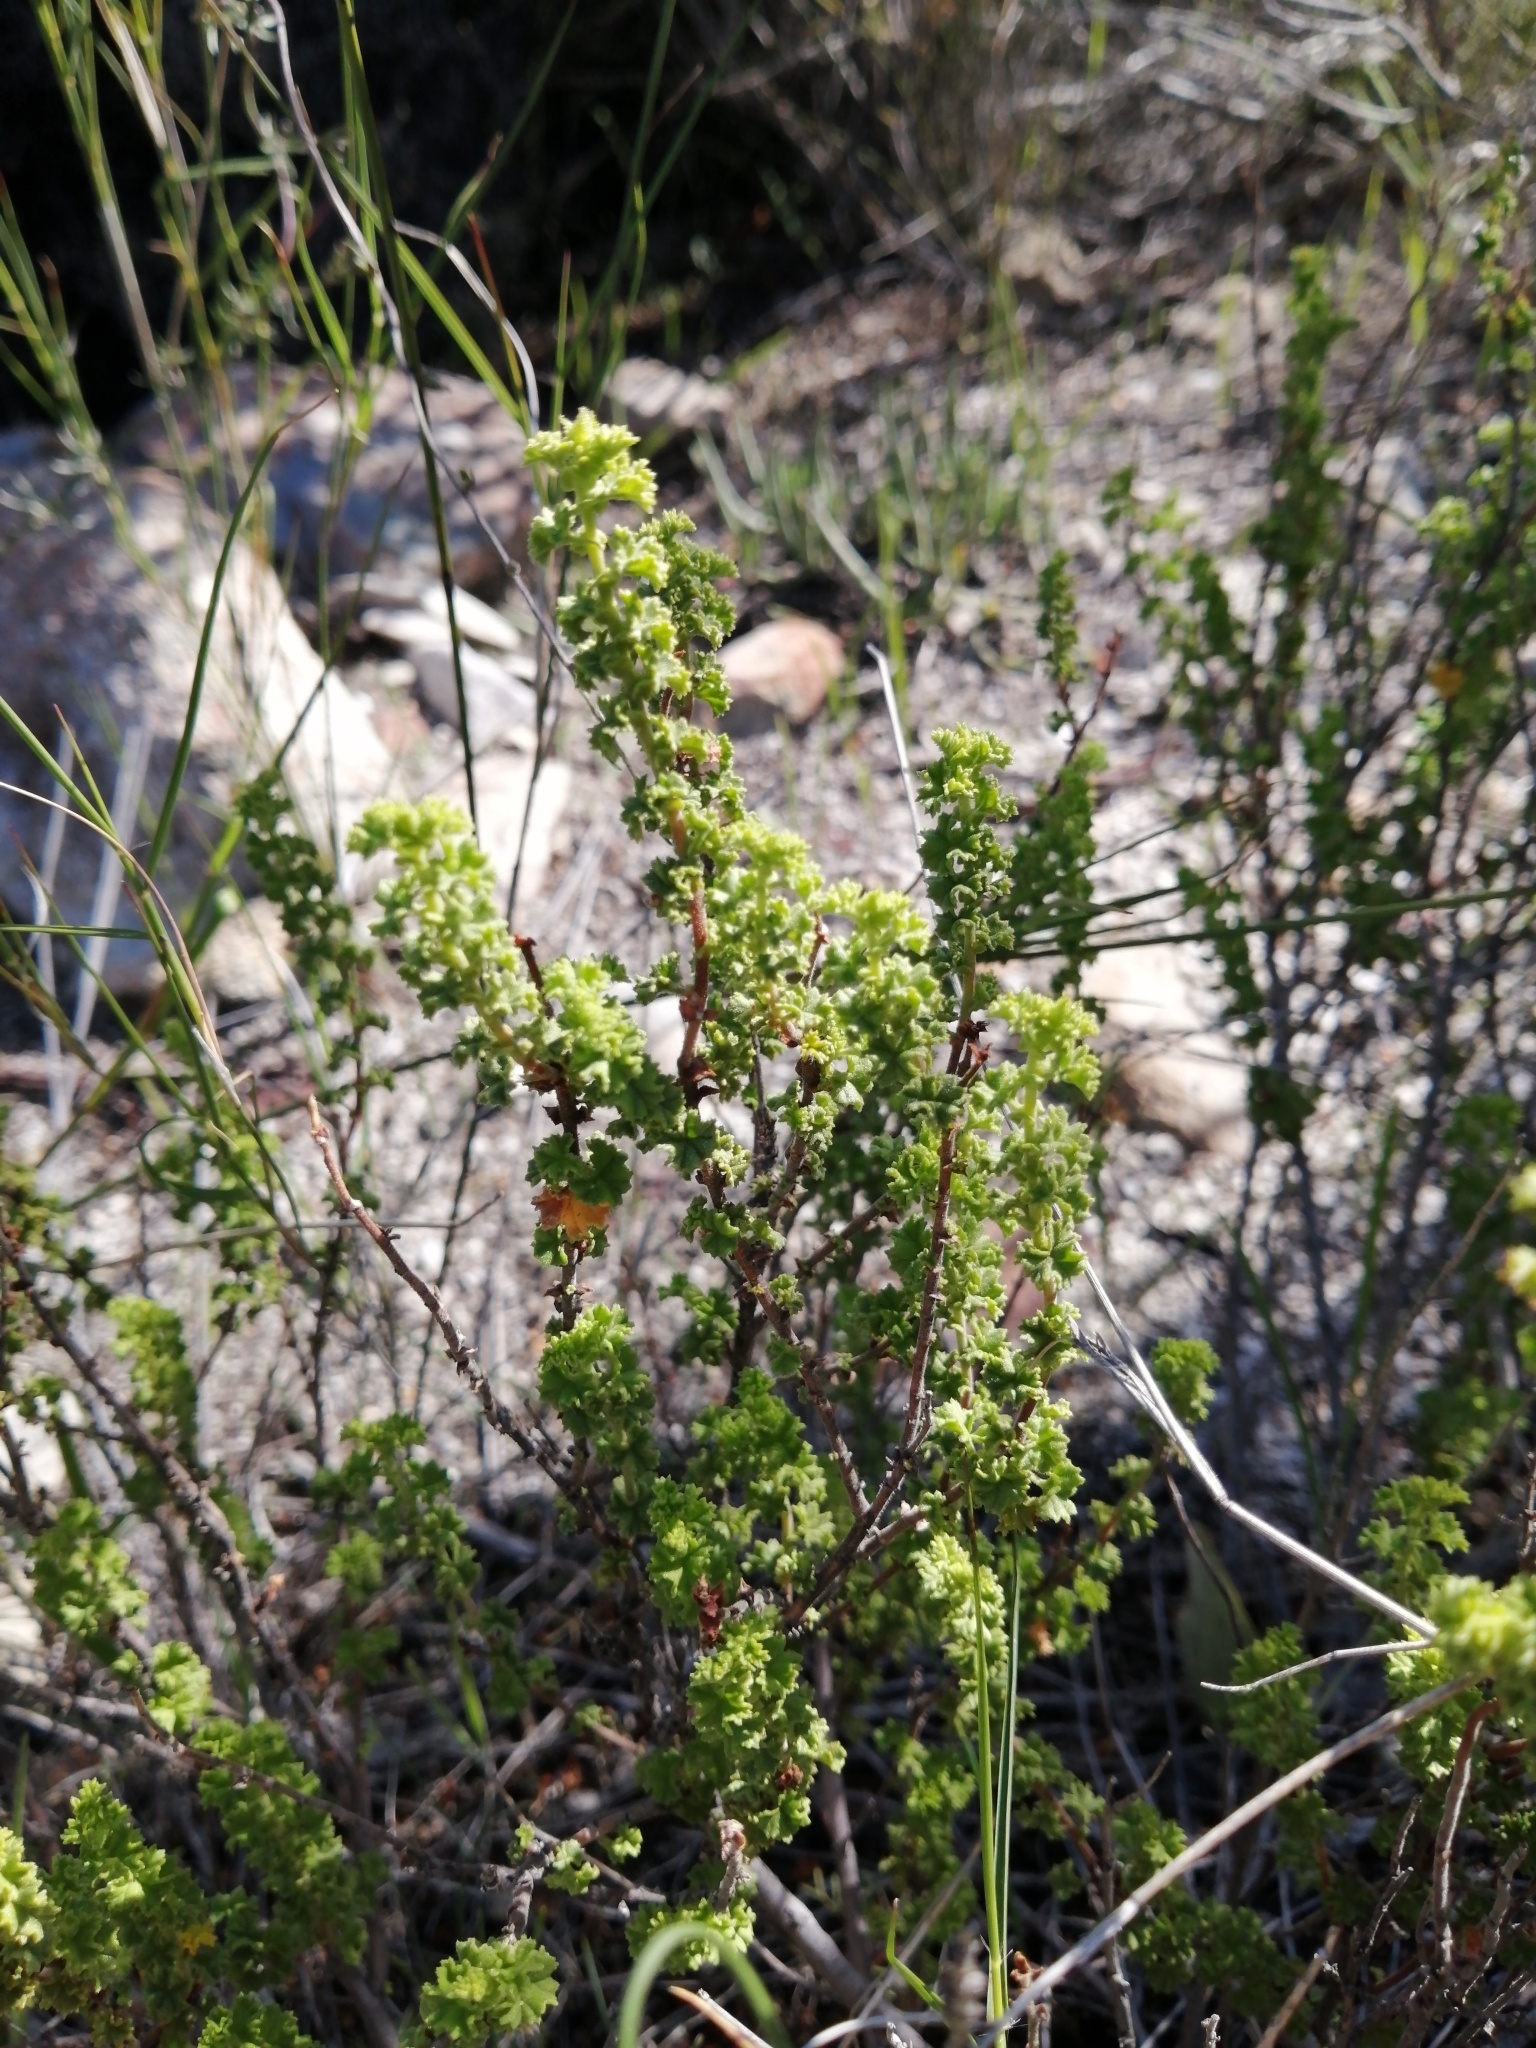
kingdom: Plantae
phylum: Tracheophyta
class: Magnoliopsida
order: Geraniales
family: Geraniaceae
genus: Pelargonium
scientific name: Pelargonium crispum
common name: Crisped-leaf pelargonium
